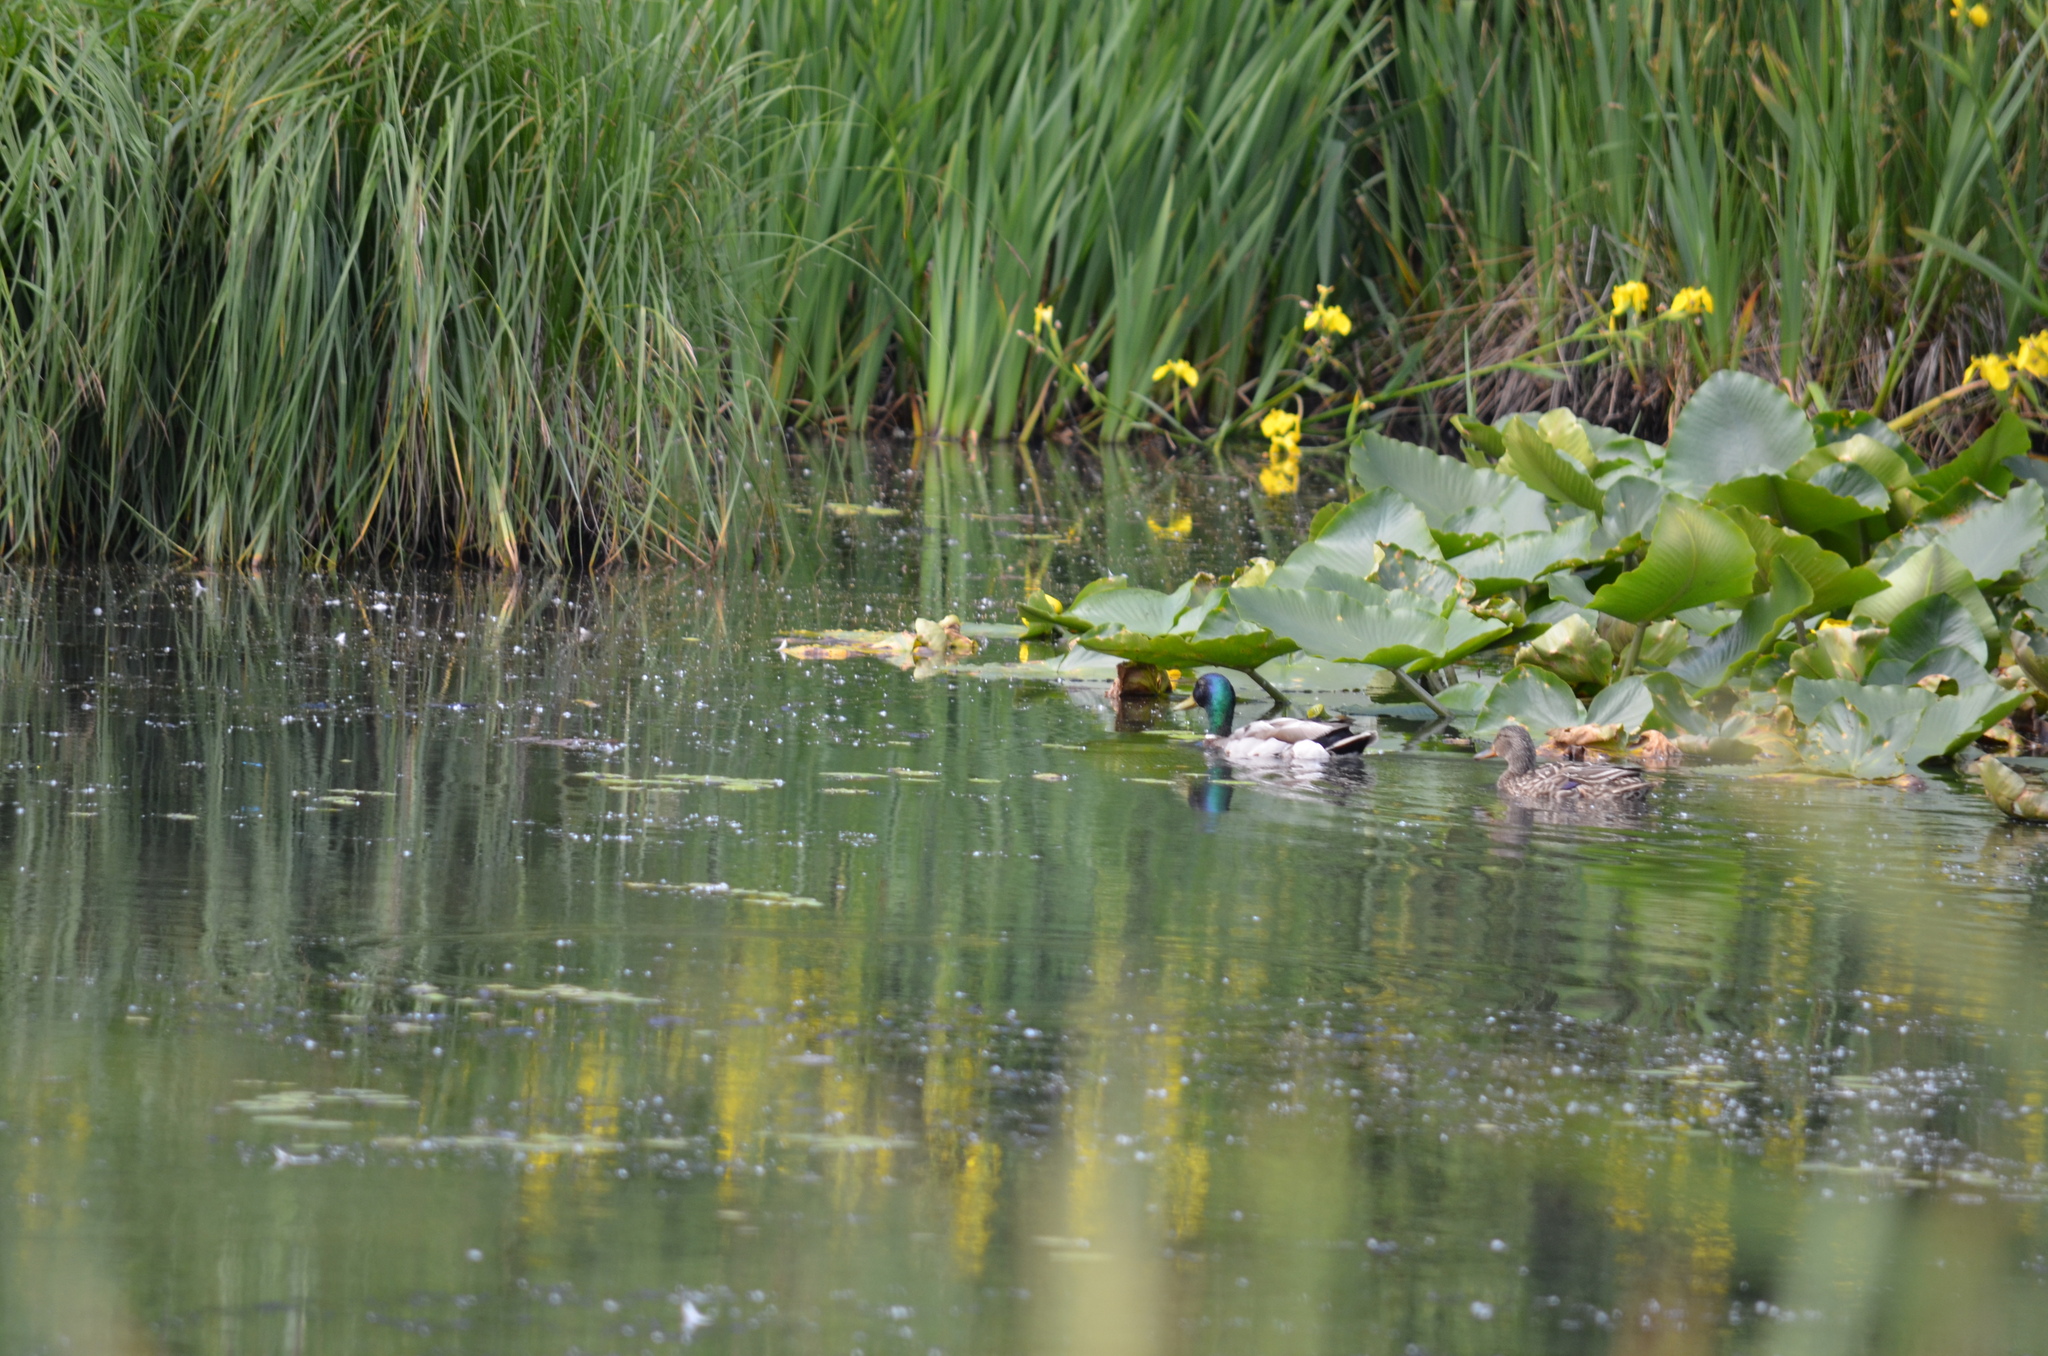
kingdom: Animalia
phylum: Chordata
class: Aves
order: Anseriformes
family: Anatidae
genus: Anas
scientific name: Anas platyrhynchos
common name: Mallard
